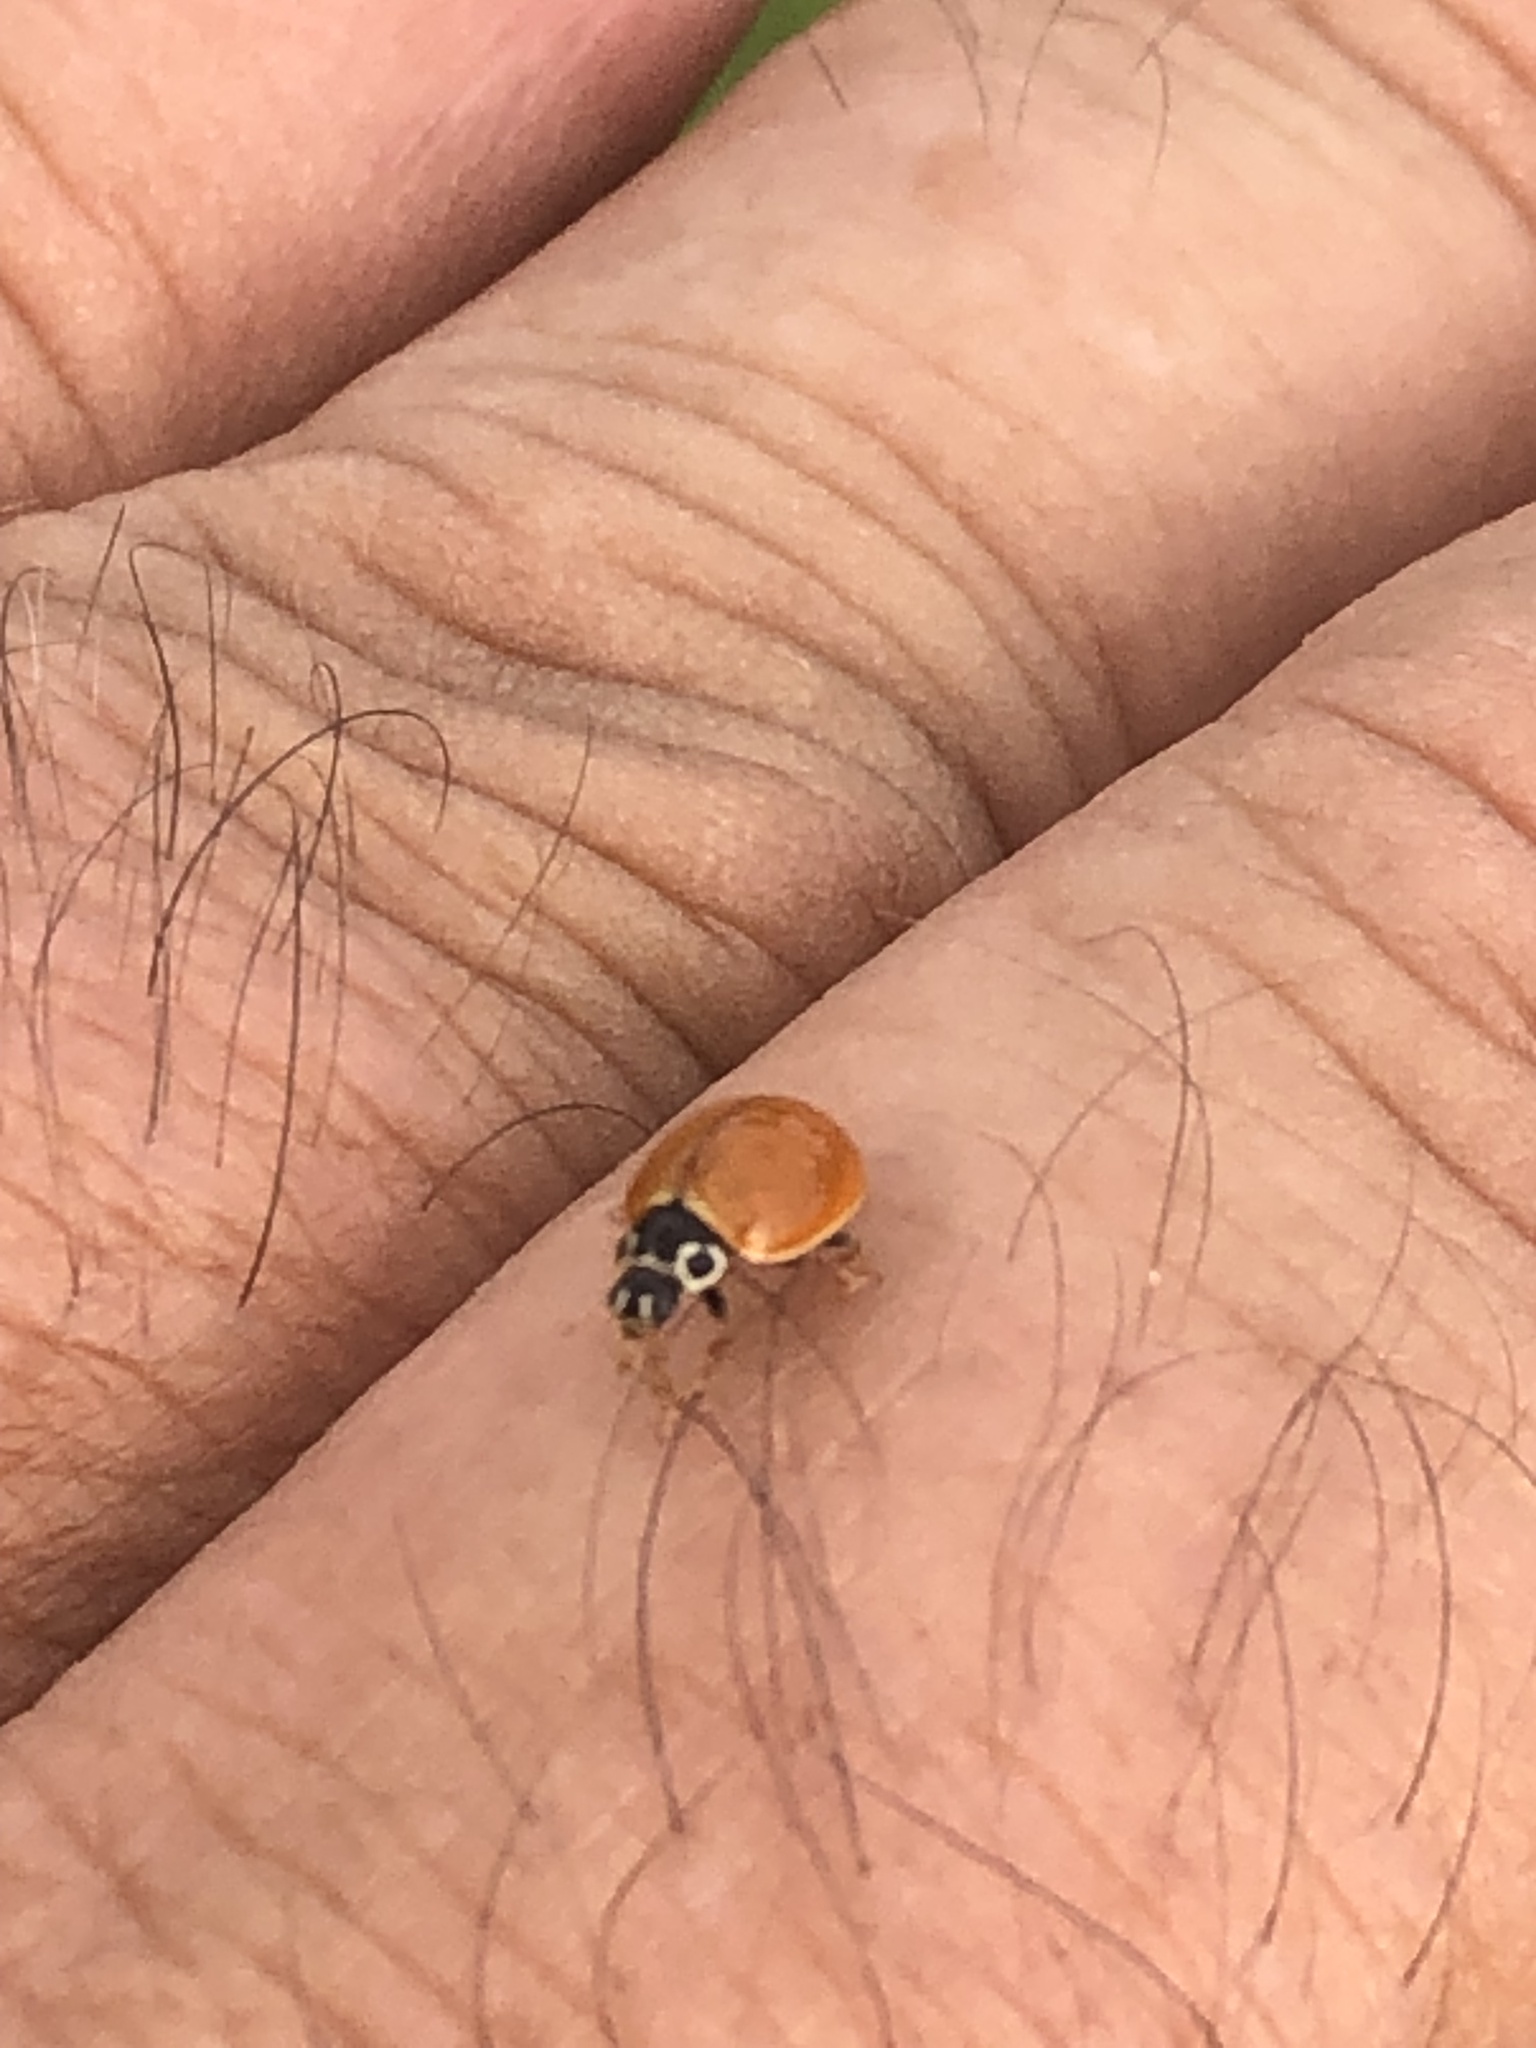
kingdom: Animalia
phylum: Arthropoda
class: Insecta
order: Coleoptera
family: Coccinellidae
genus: Cycloneda
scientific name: Cycloneda munda
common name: Polished lady beetle
